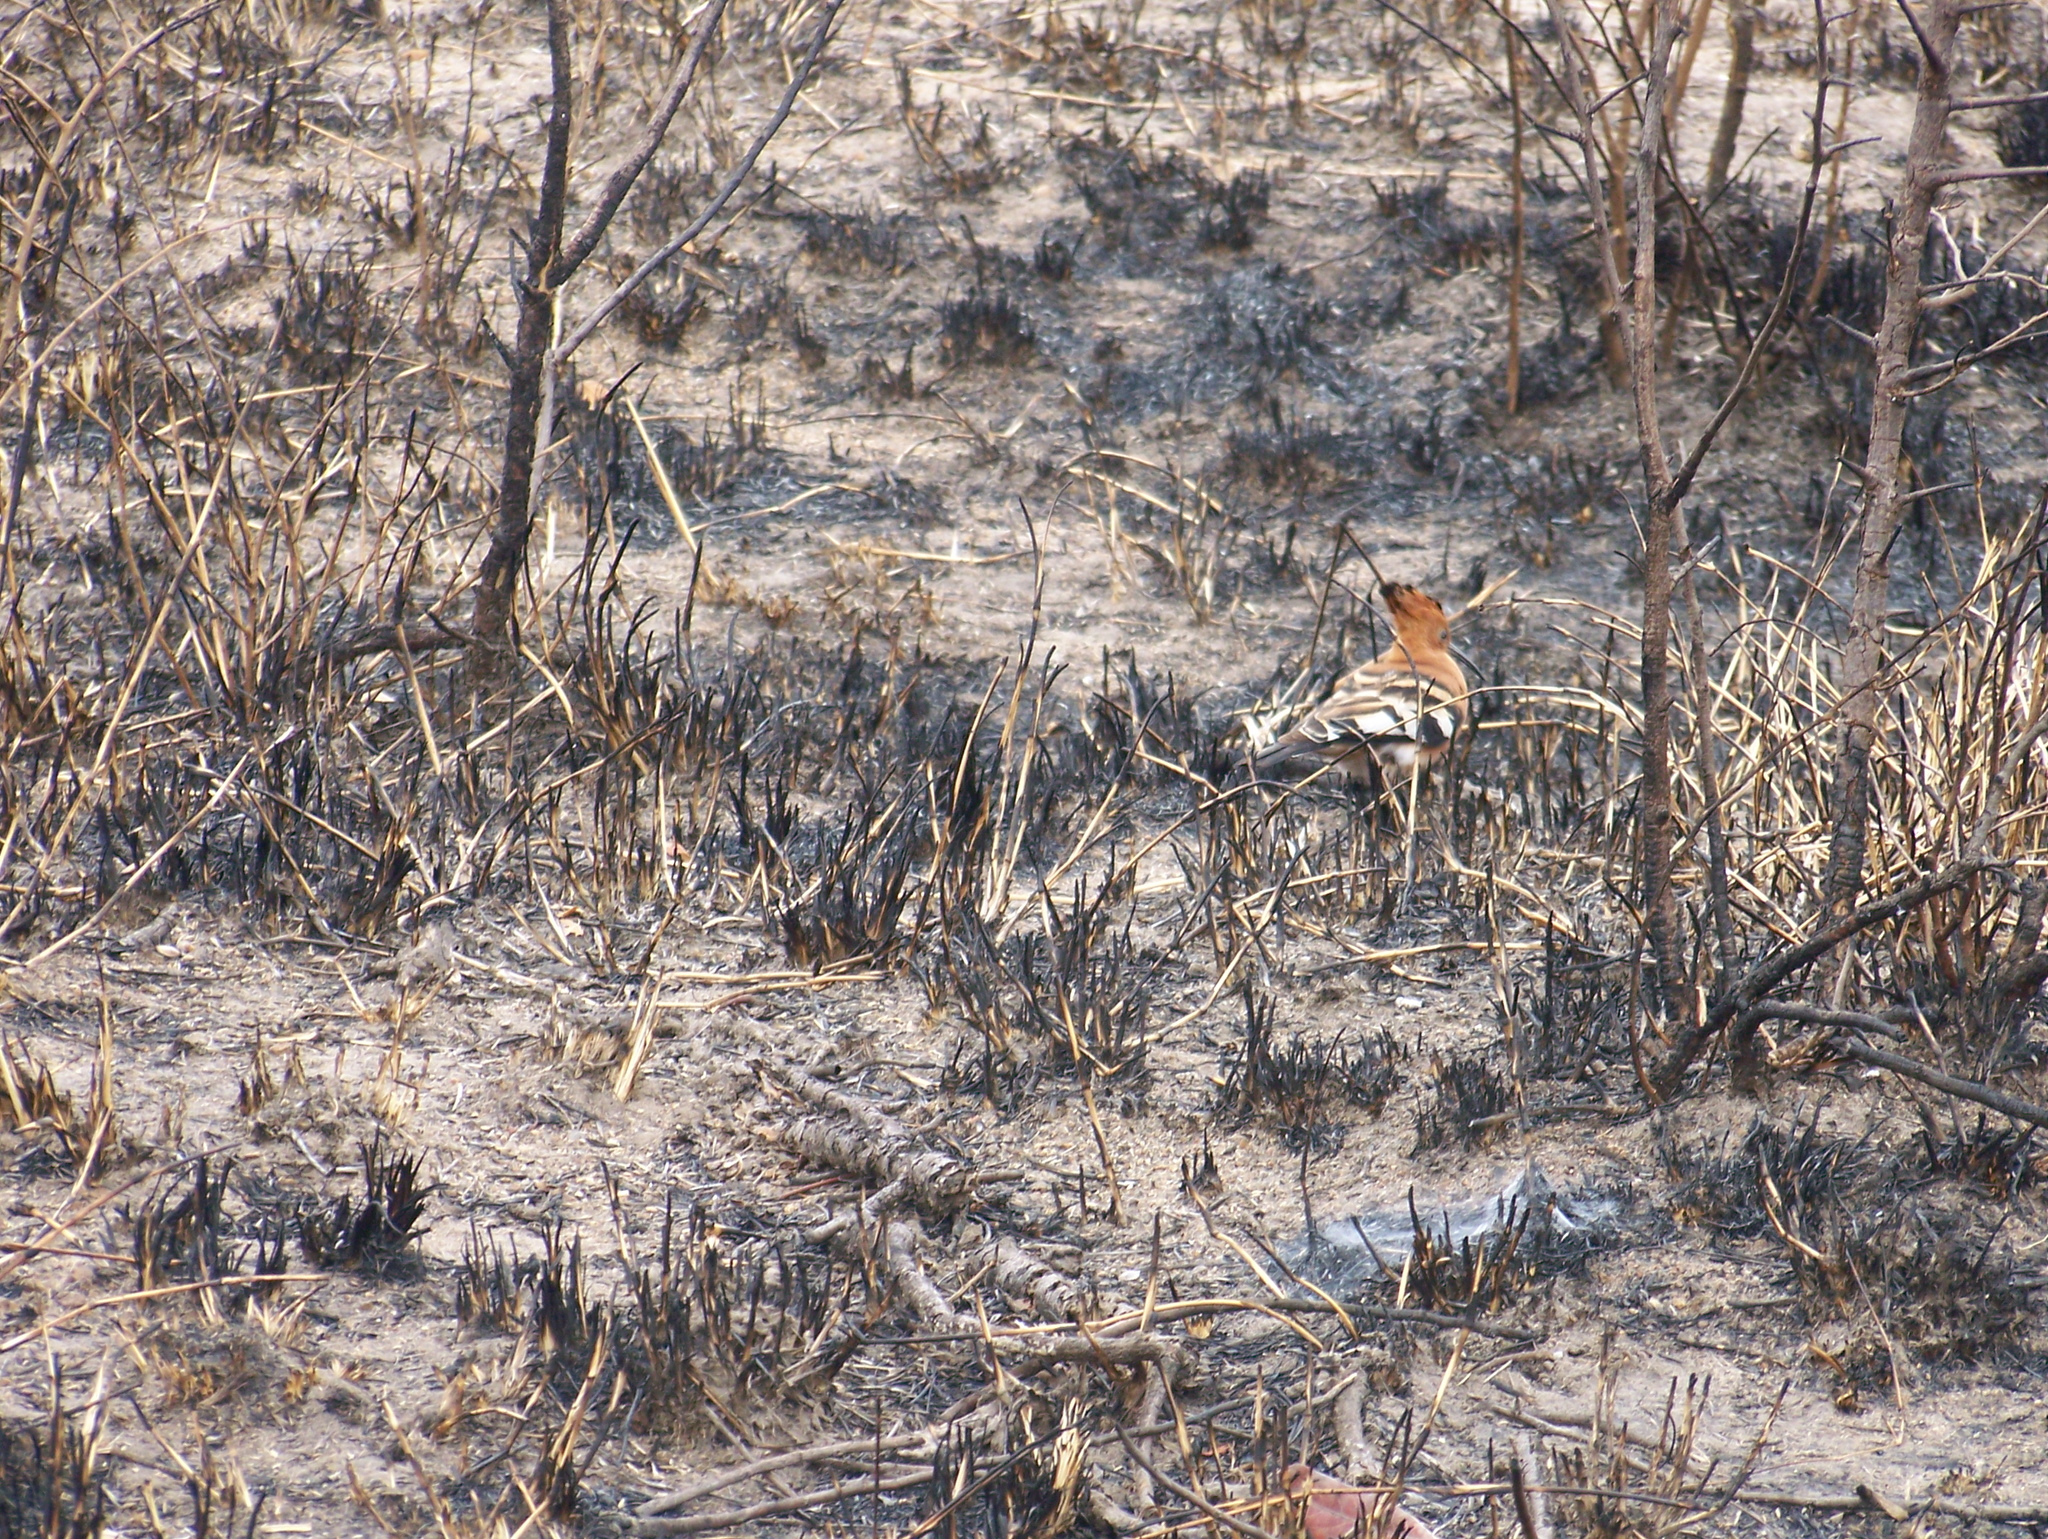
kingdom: Animalia
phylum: Chordata
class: Aves
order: Bucerotiformes
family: Upupidae
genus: Upupa
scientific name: Upupa africana
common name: African hoopoe
